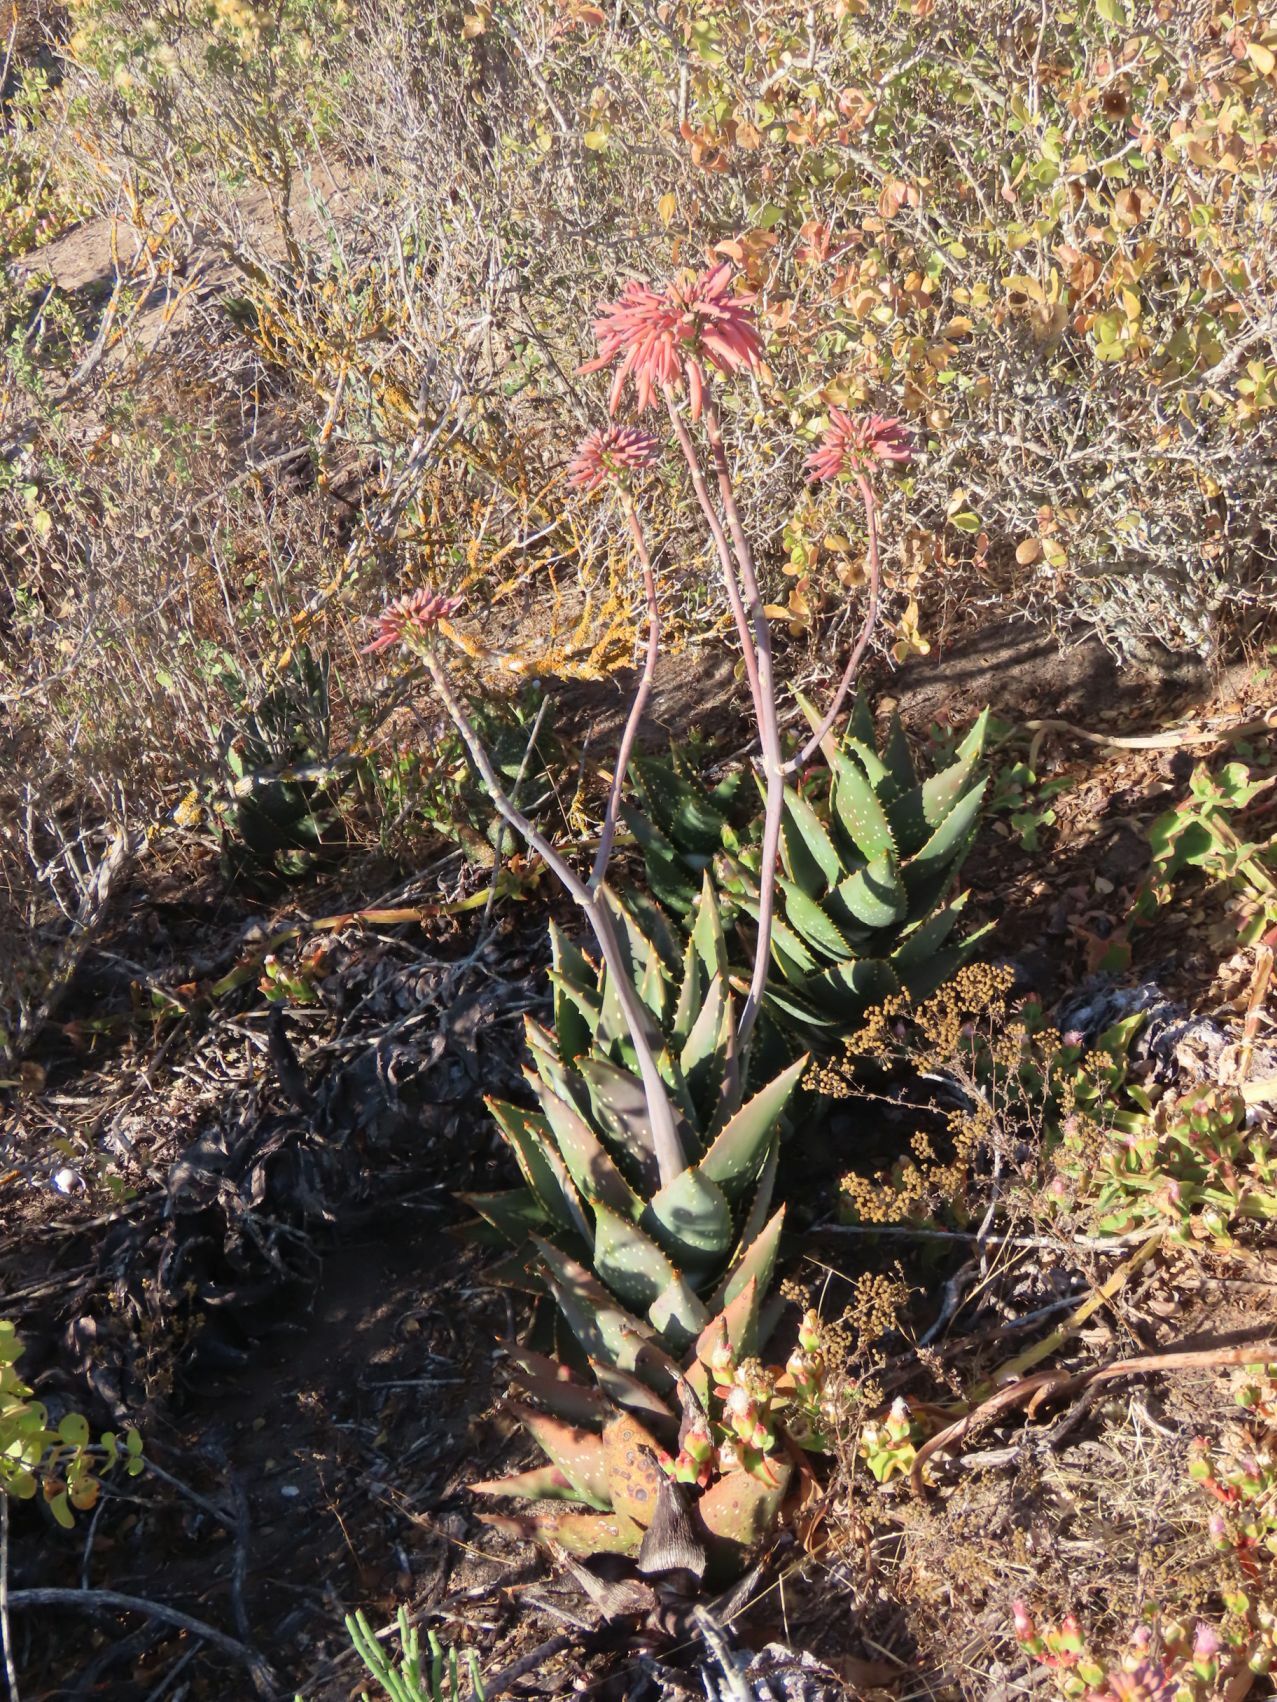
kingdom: Plantae
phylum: Tracheophyta
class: Liliopsida
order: Asparagales
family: Asphodelaceae
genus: Aloe
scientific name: Aloe distans
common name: Short-leaved aloe
